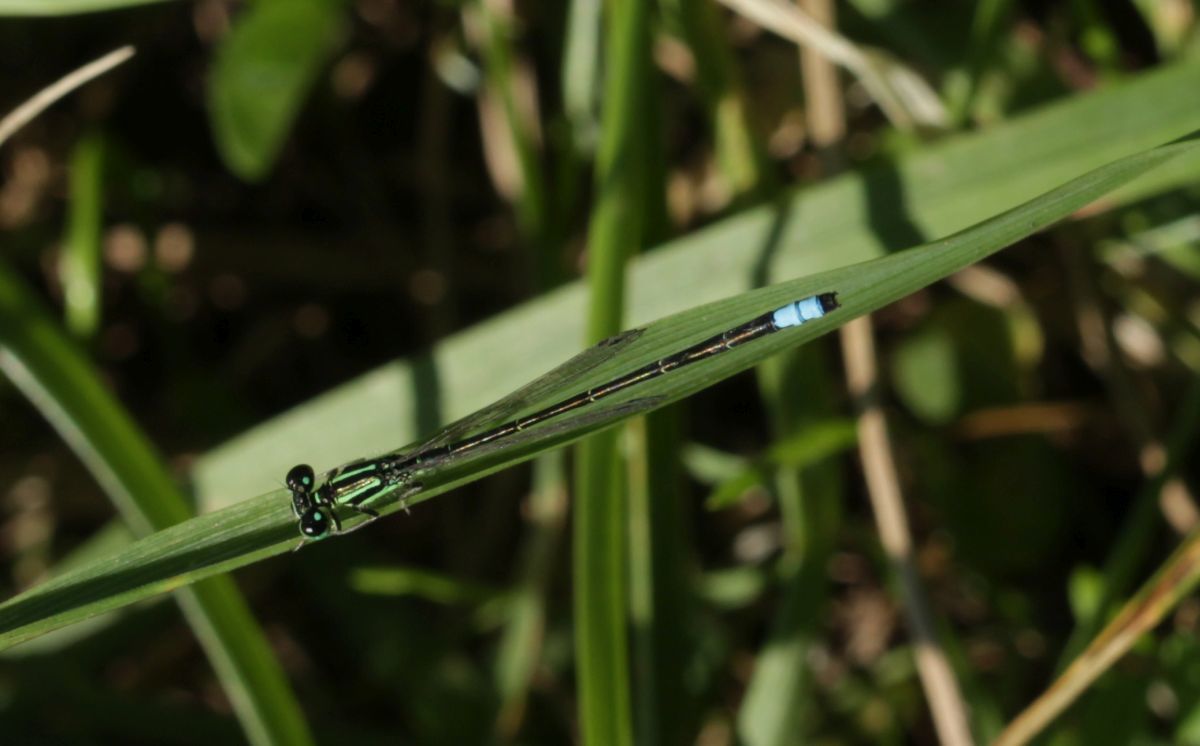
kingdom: Animalia
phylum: Arthropoda
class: Insecta
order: Odonata
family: Coenagrionidae
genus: Ischnura
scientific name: Ischnura verticalis
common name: Eastern forktail
